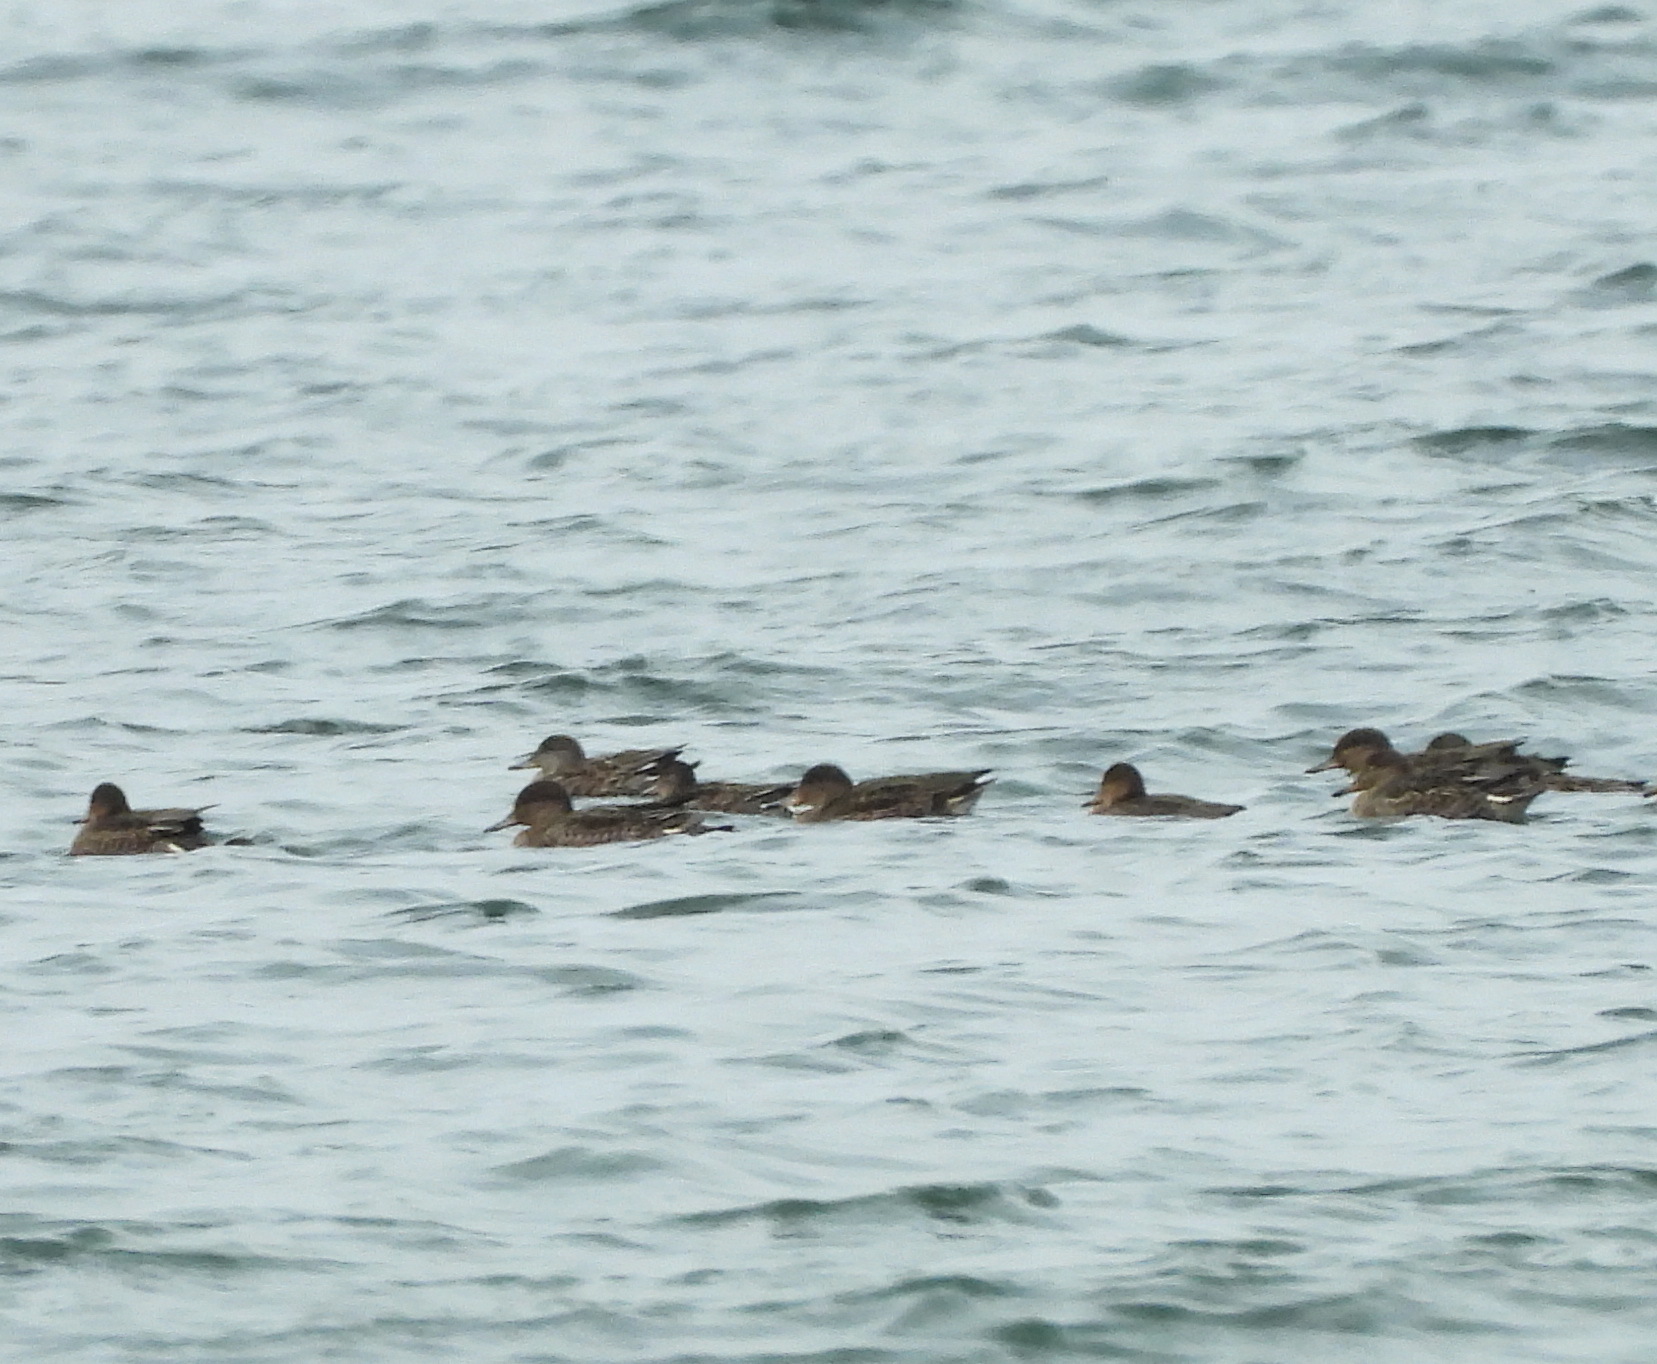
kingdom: Animalia
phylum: Chordata
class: Aves
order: Anseriformes
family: Anatidae
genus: Mareca
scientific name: Mareca strepera
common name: Gadwall
